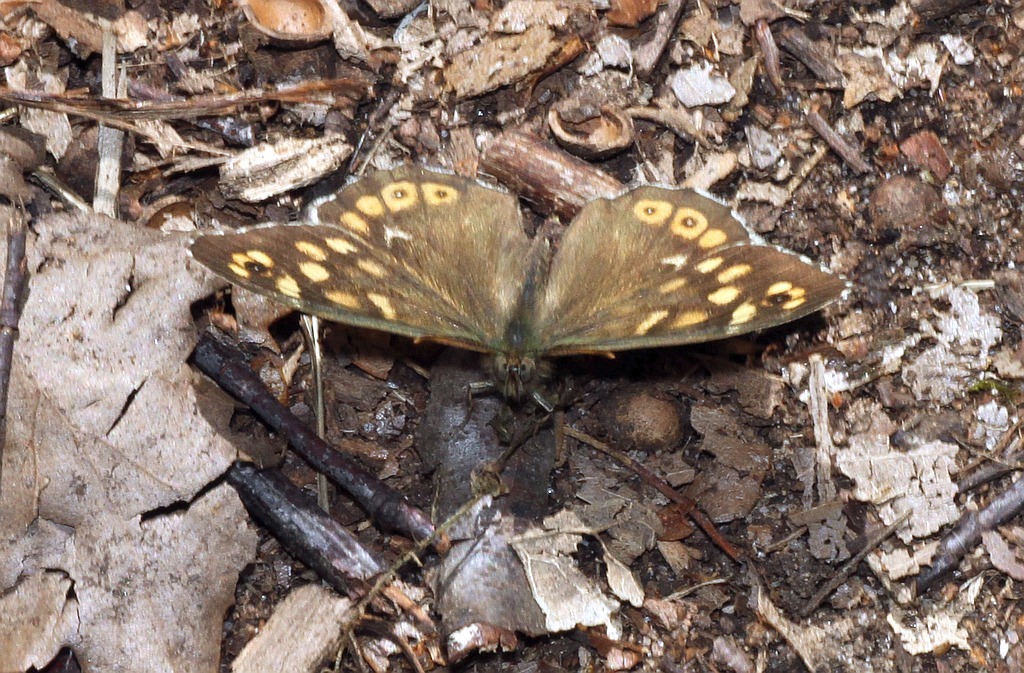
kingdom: Animalia
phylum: Arthropoda
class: Insecta
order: Lepidoptera
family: Nymphalidae
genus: Pararge
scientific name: Pararge aegeria
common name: Speckled wood
